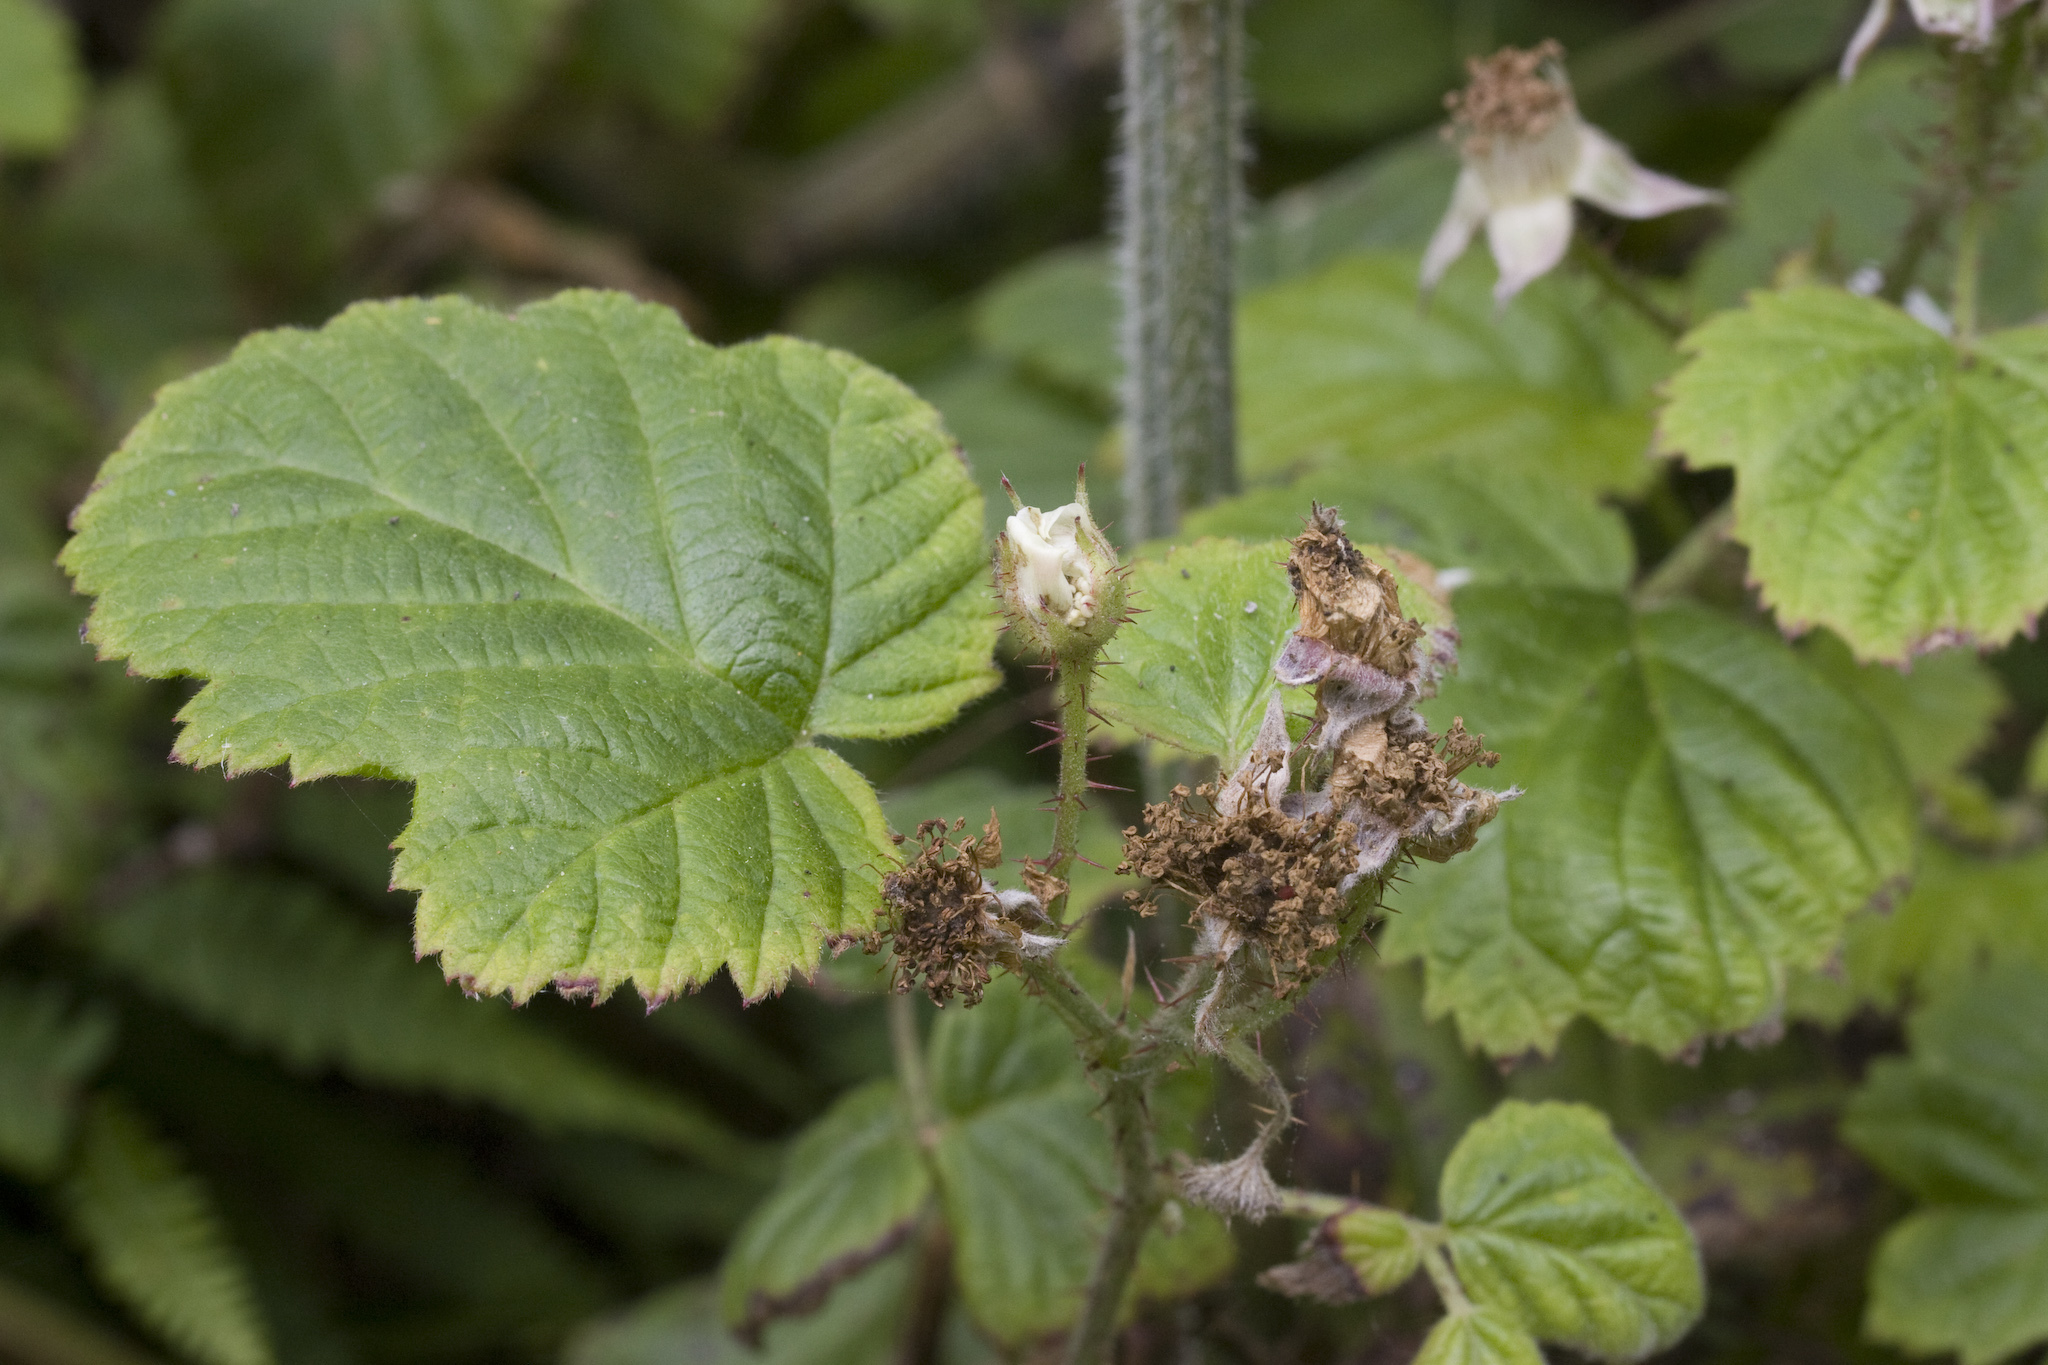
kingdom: Plantae
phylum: Tracheophyta
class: Magnoliopsida
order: Rosales
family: Rosaceae
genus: Rubus
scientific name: Rubus ursinus
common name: Pacific blackberry
